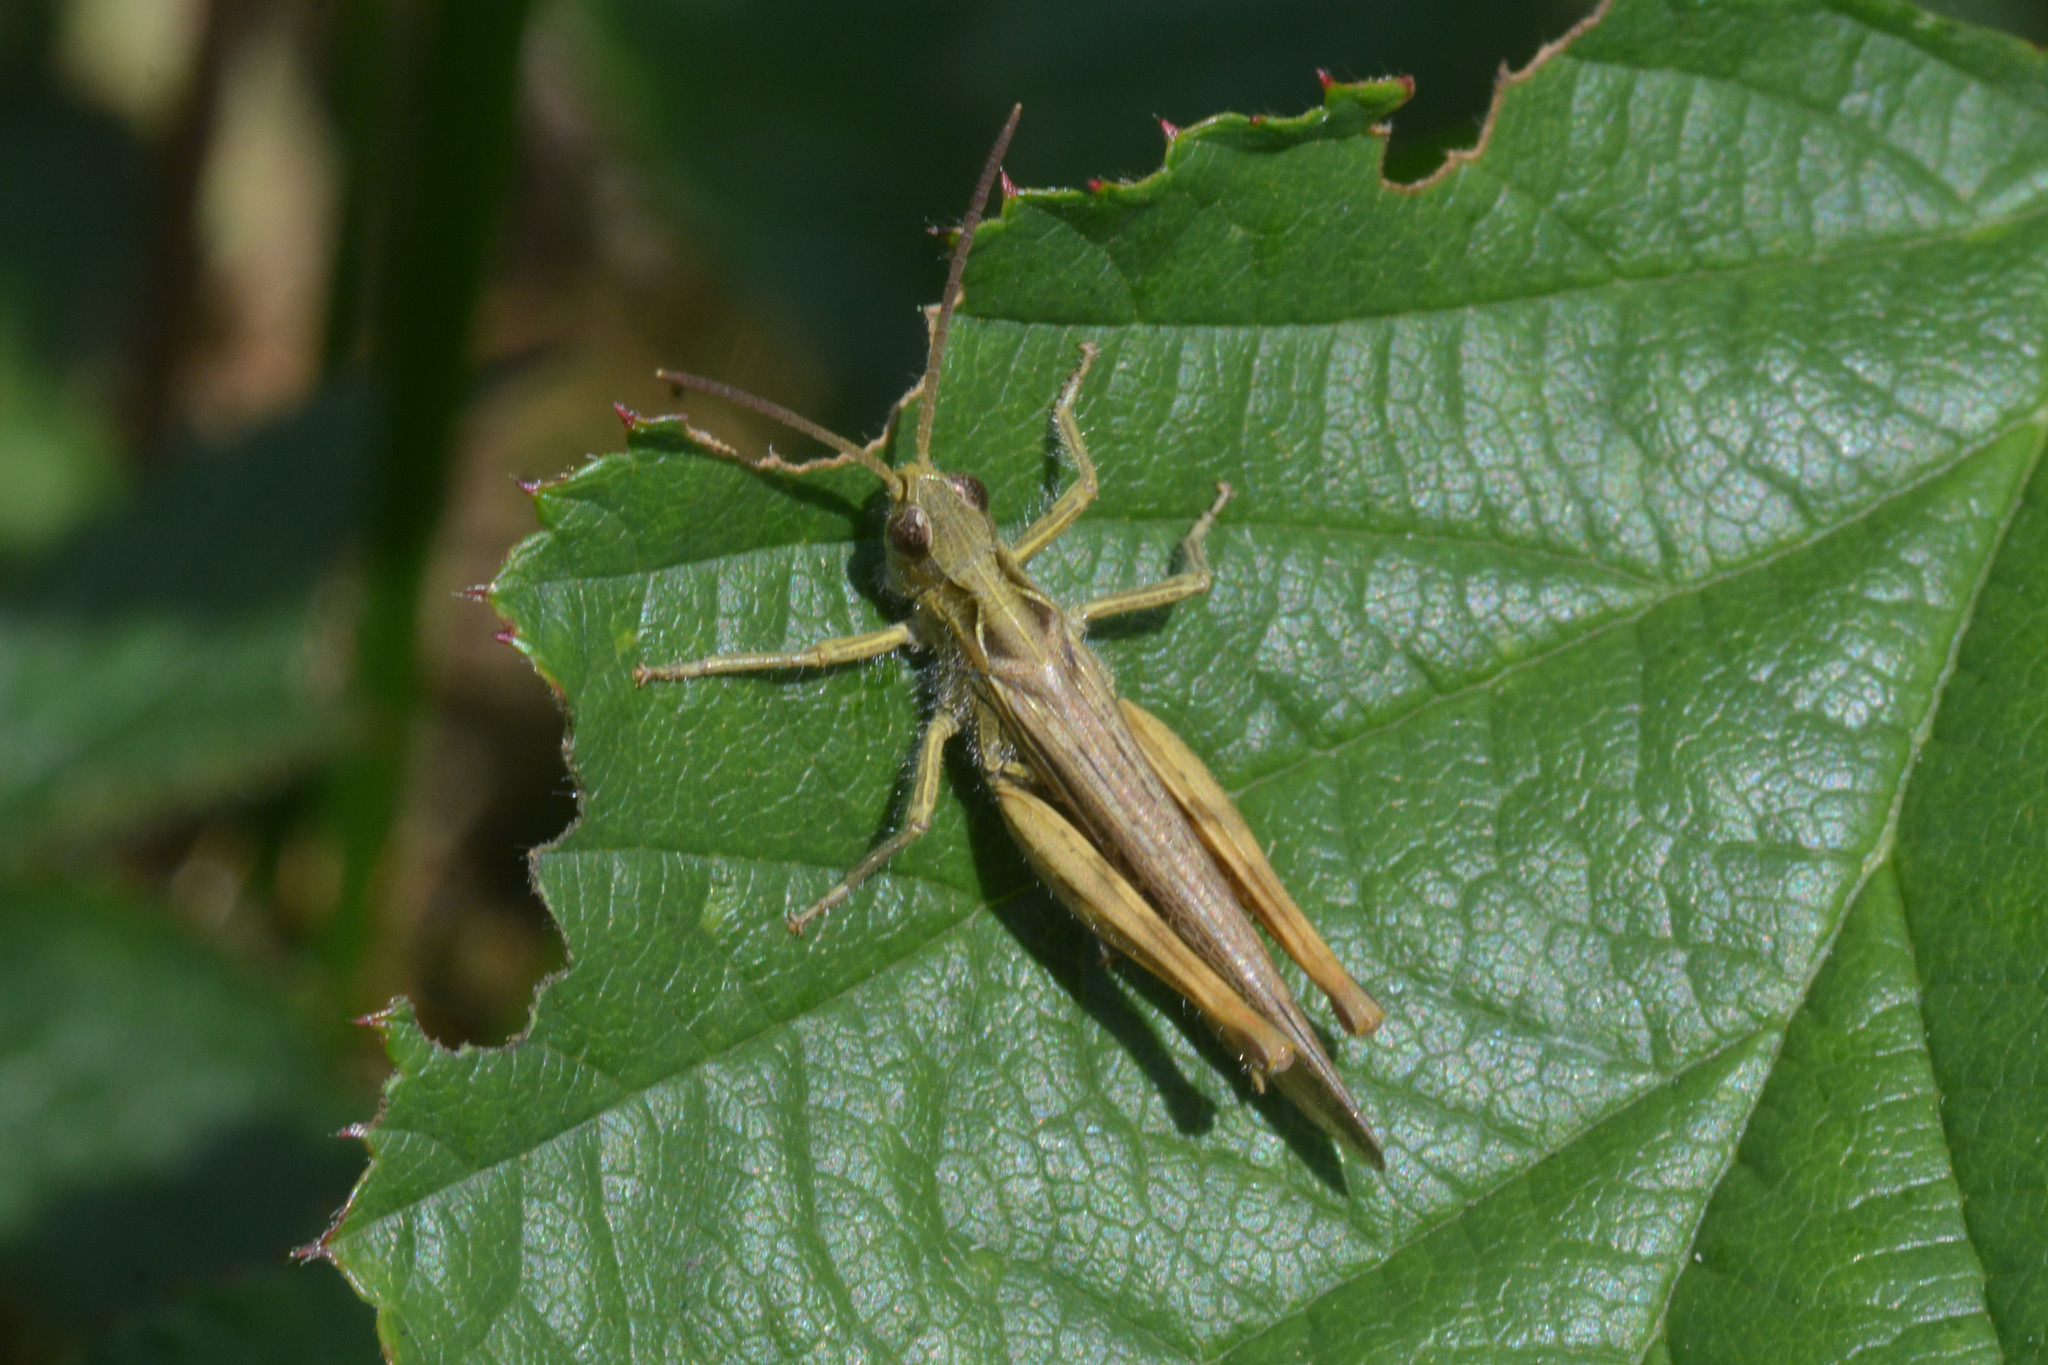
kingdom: Animalia
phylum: Arthropoda
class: Insecta
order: Orthoptera
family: Acrididae
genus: Chorthippus
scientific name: Chorthippus brunneus
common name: Field grasshopper
